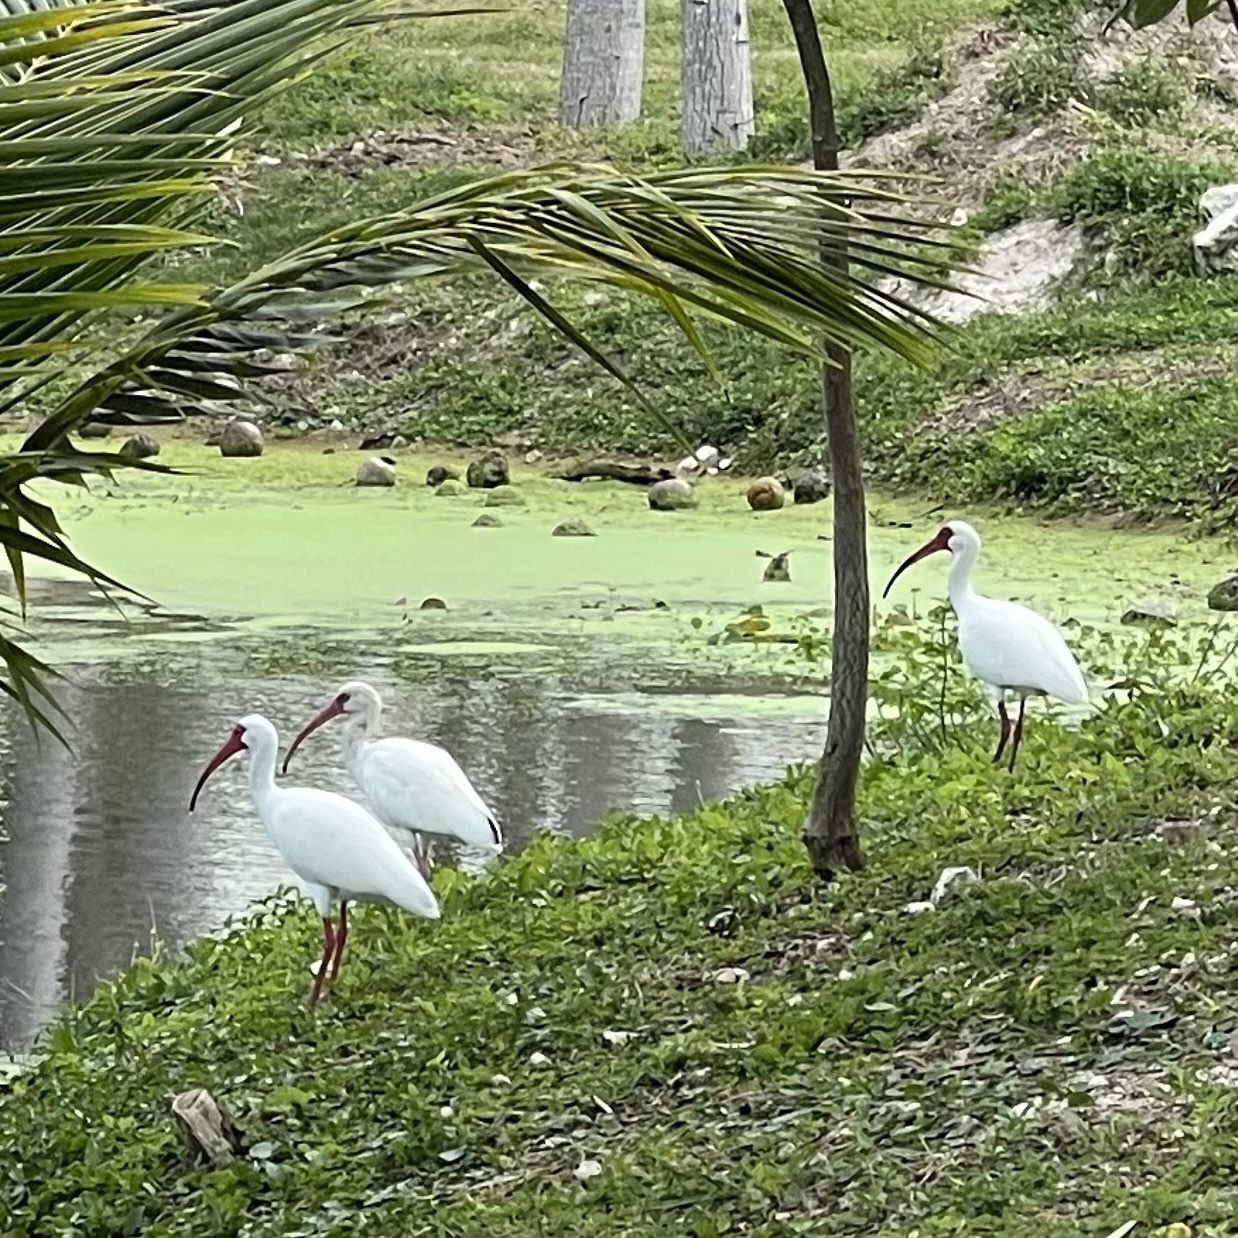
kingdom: Animalia
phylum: Chordata
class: Aves
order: Pelecaniformes
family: Threskiornithidae
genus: Eudocimus
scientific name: Eudocimus albus
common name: White ibis
